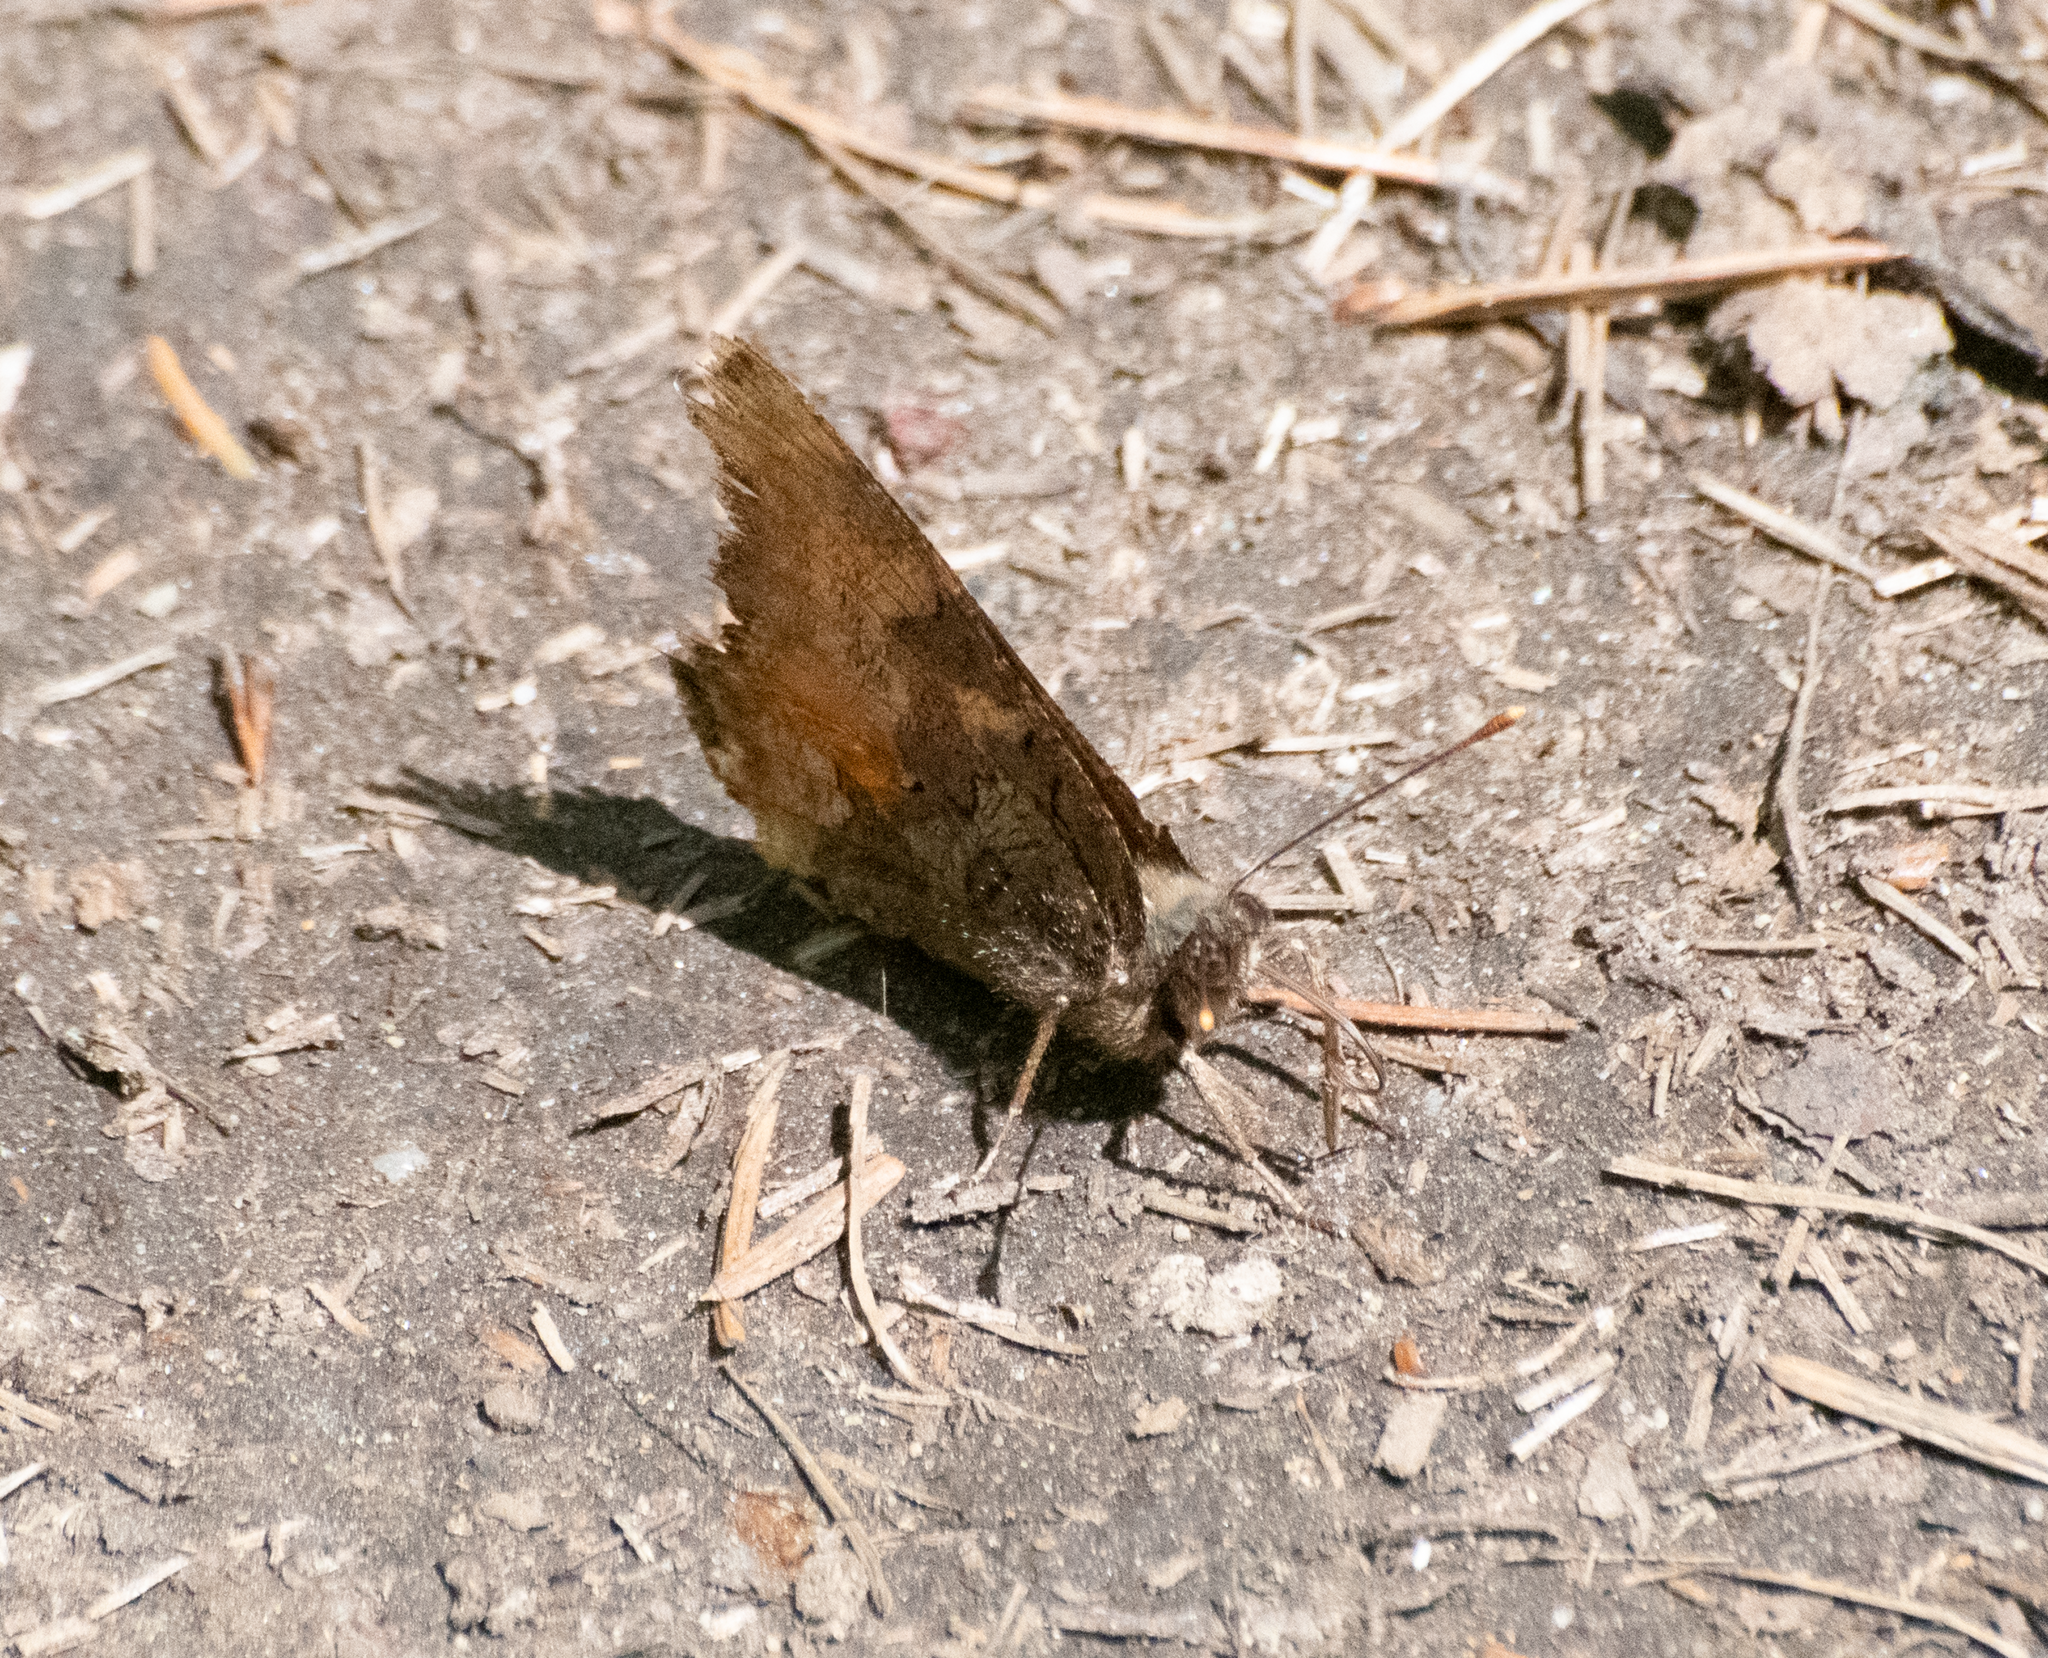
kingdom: Animalia
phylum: Arthropoda
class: Insecta
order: Lepidoptera
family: Nymphalidae
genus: Nymphalis
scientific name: Nymphalis californica
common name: California tortoiseshell
